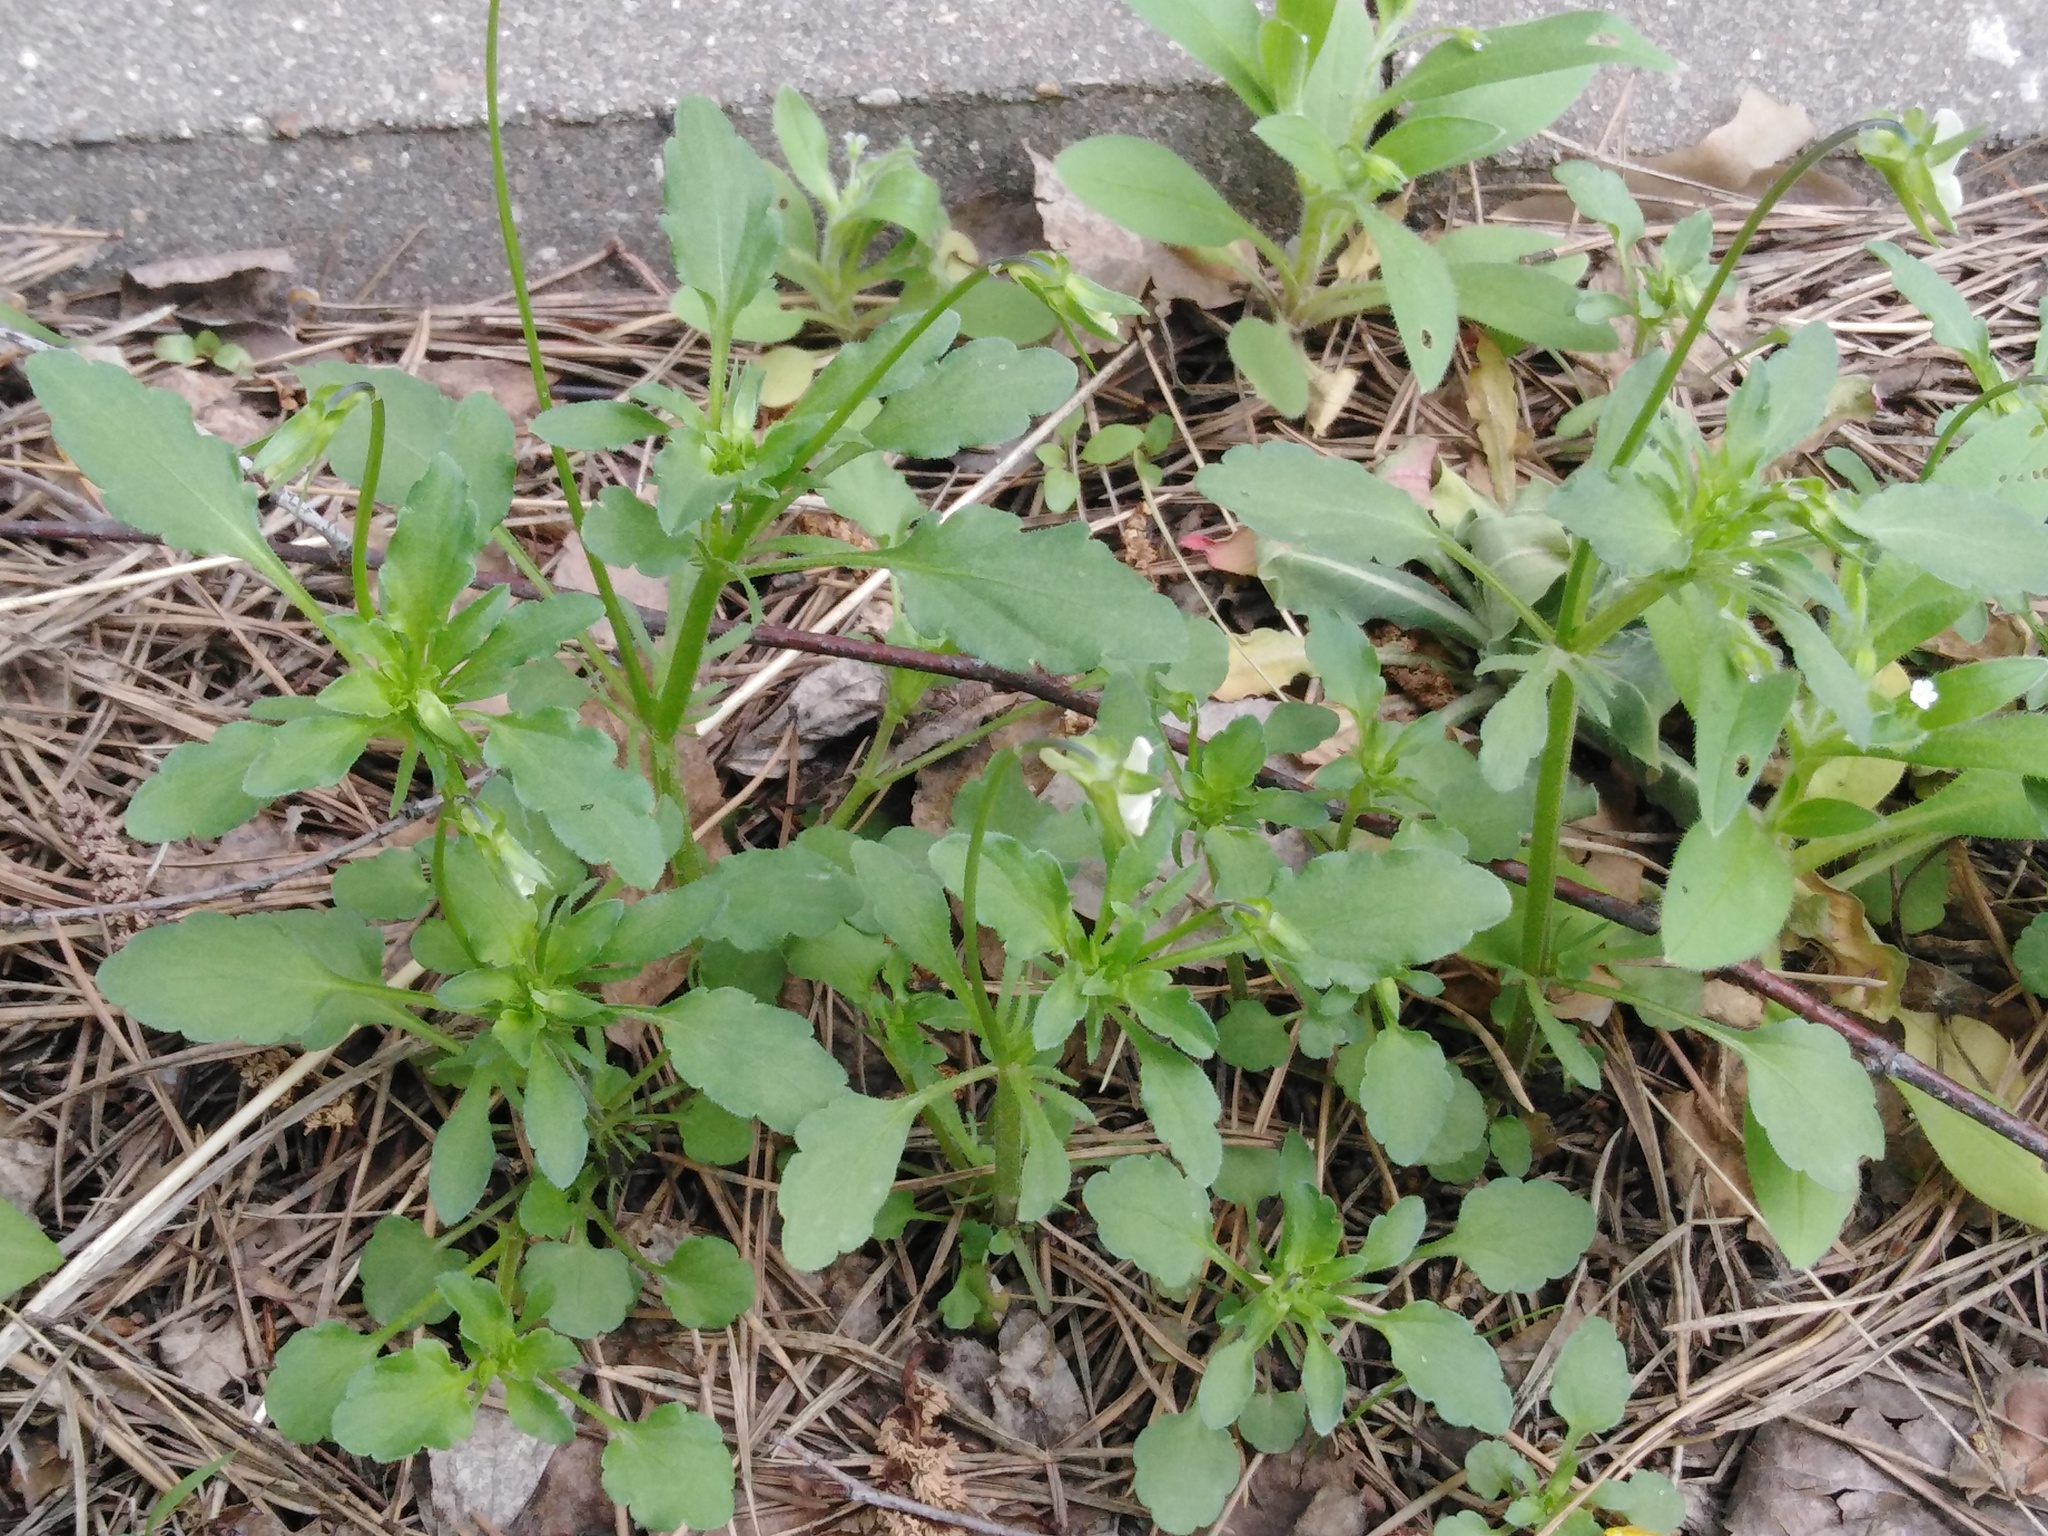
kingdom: Plantae
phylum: Tracheophyta
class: Magnoliopsida
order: Malpighiales
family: Violaceae
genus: Viola
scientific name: Viola arvensis
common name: Field pansy
